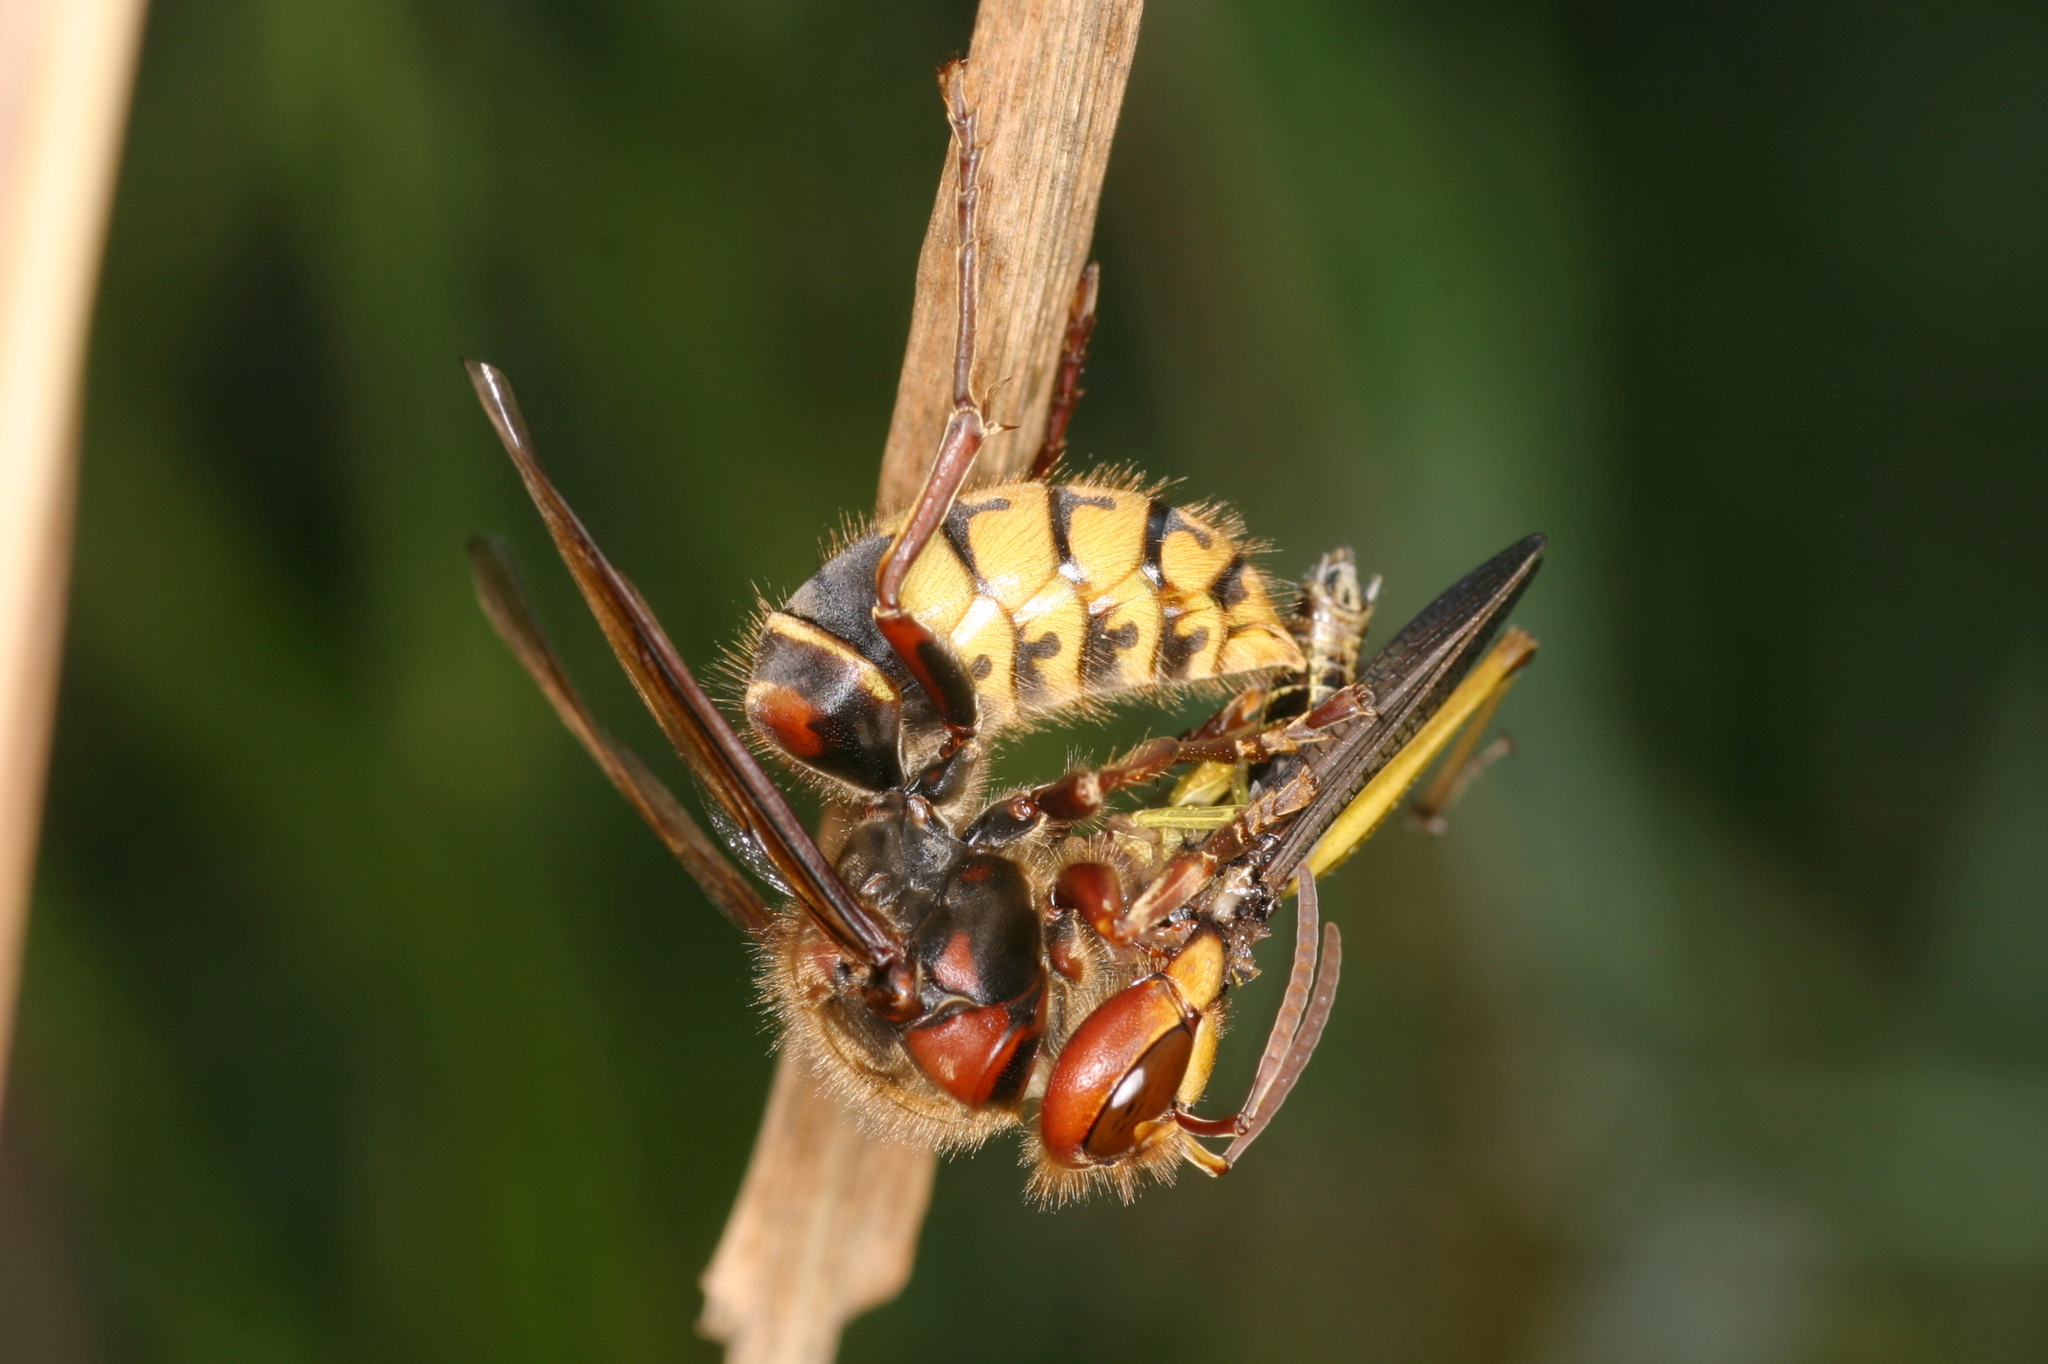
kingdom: Animalia
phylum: Arthropoda
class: Insecta
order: Hymenoptera
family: Vespidae
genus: Vespa
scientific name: Vespa crabro
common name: Hornet
